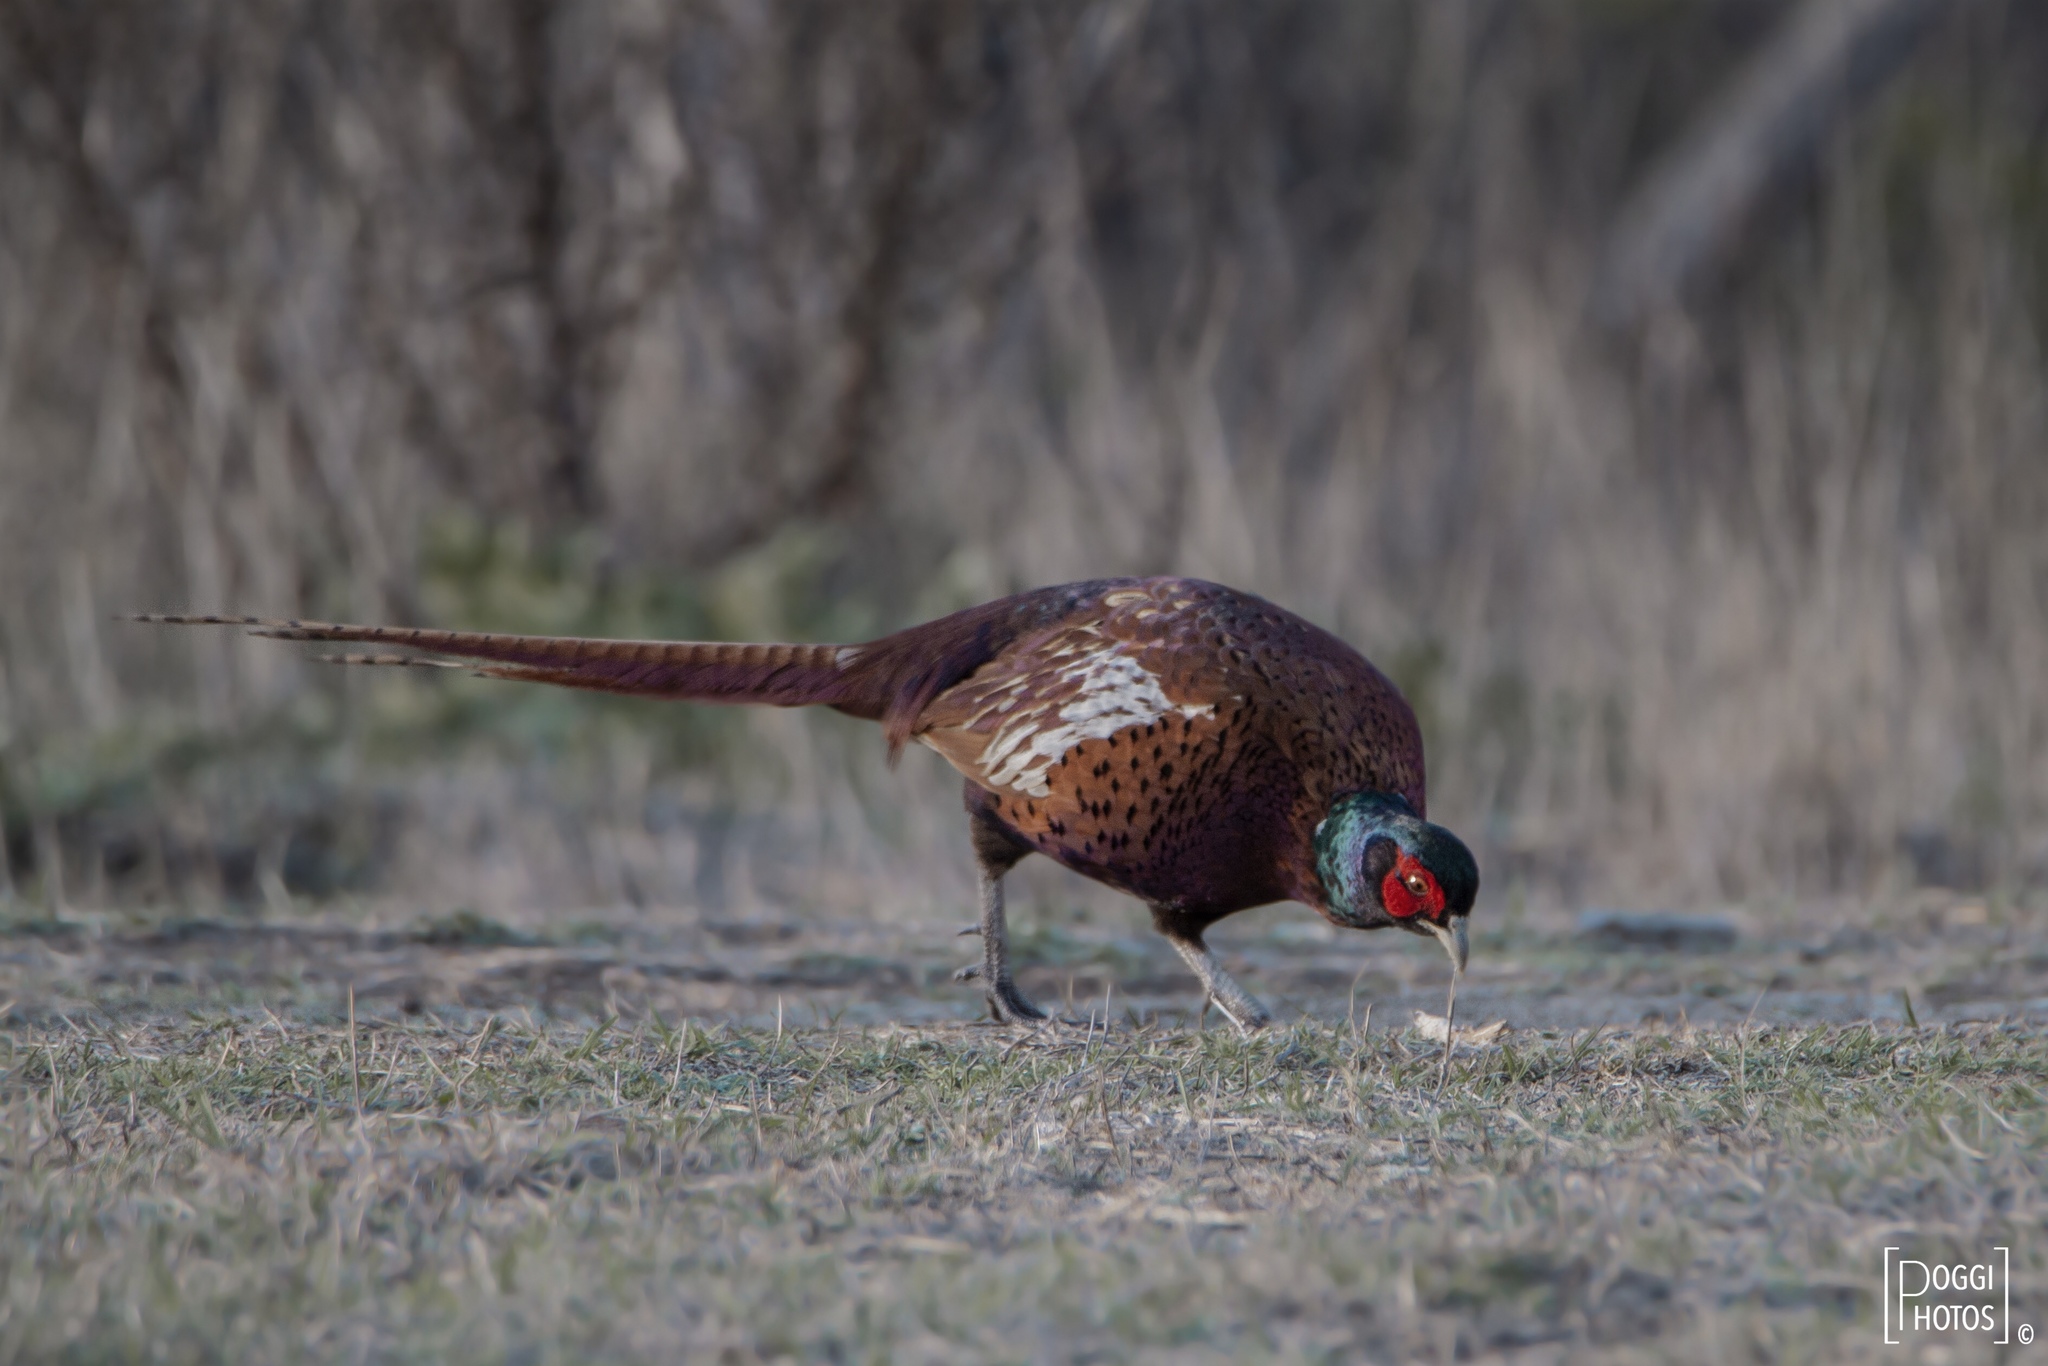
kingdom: Animalia
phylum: Chordata
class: Aves
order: Galliformes
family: Phasianidae
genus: Phasianus
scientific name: Phasianus colchicus
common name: Common pheasant
